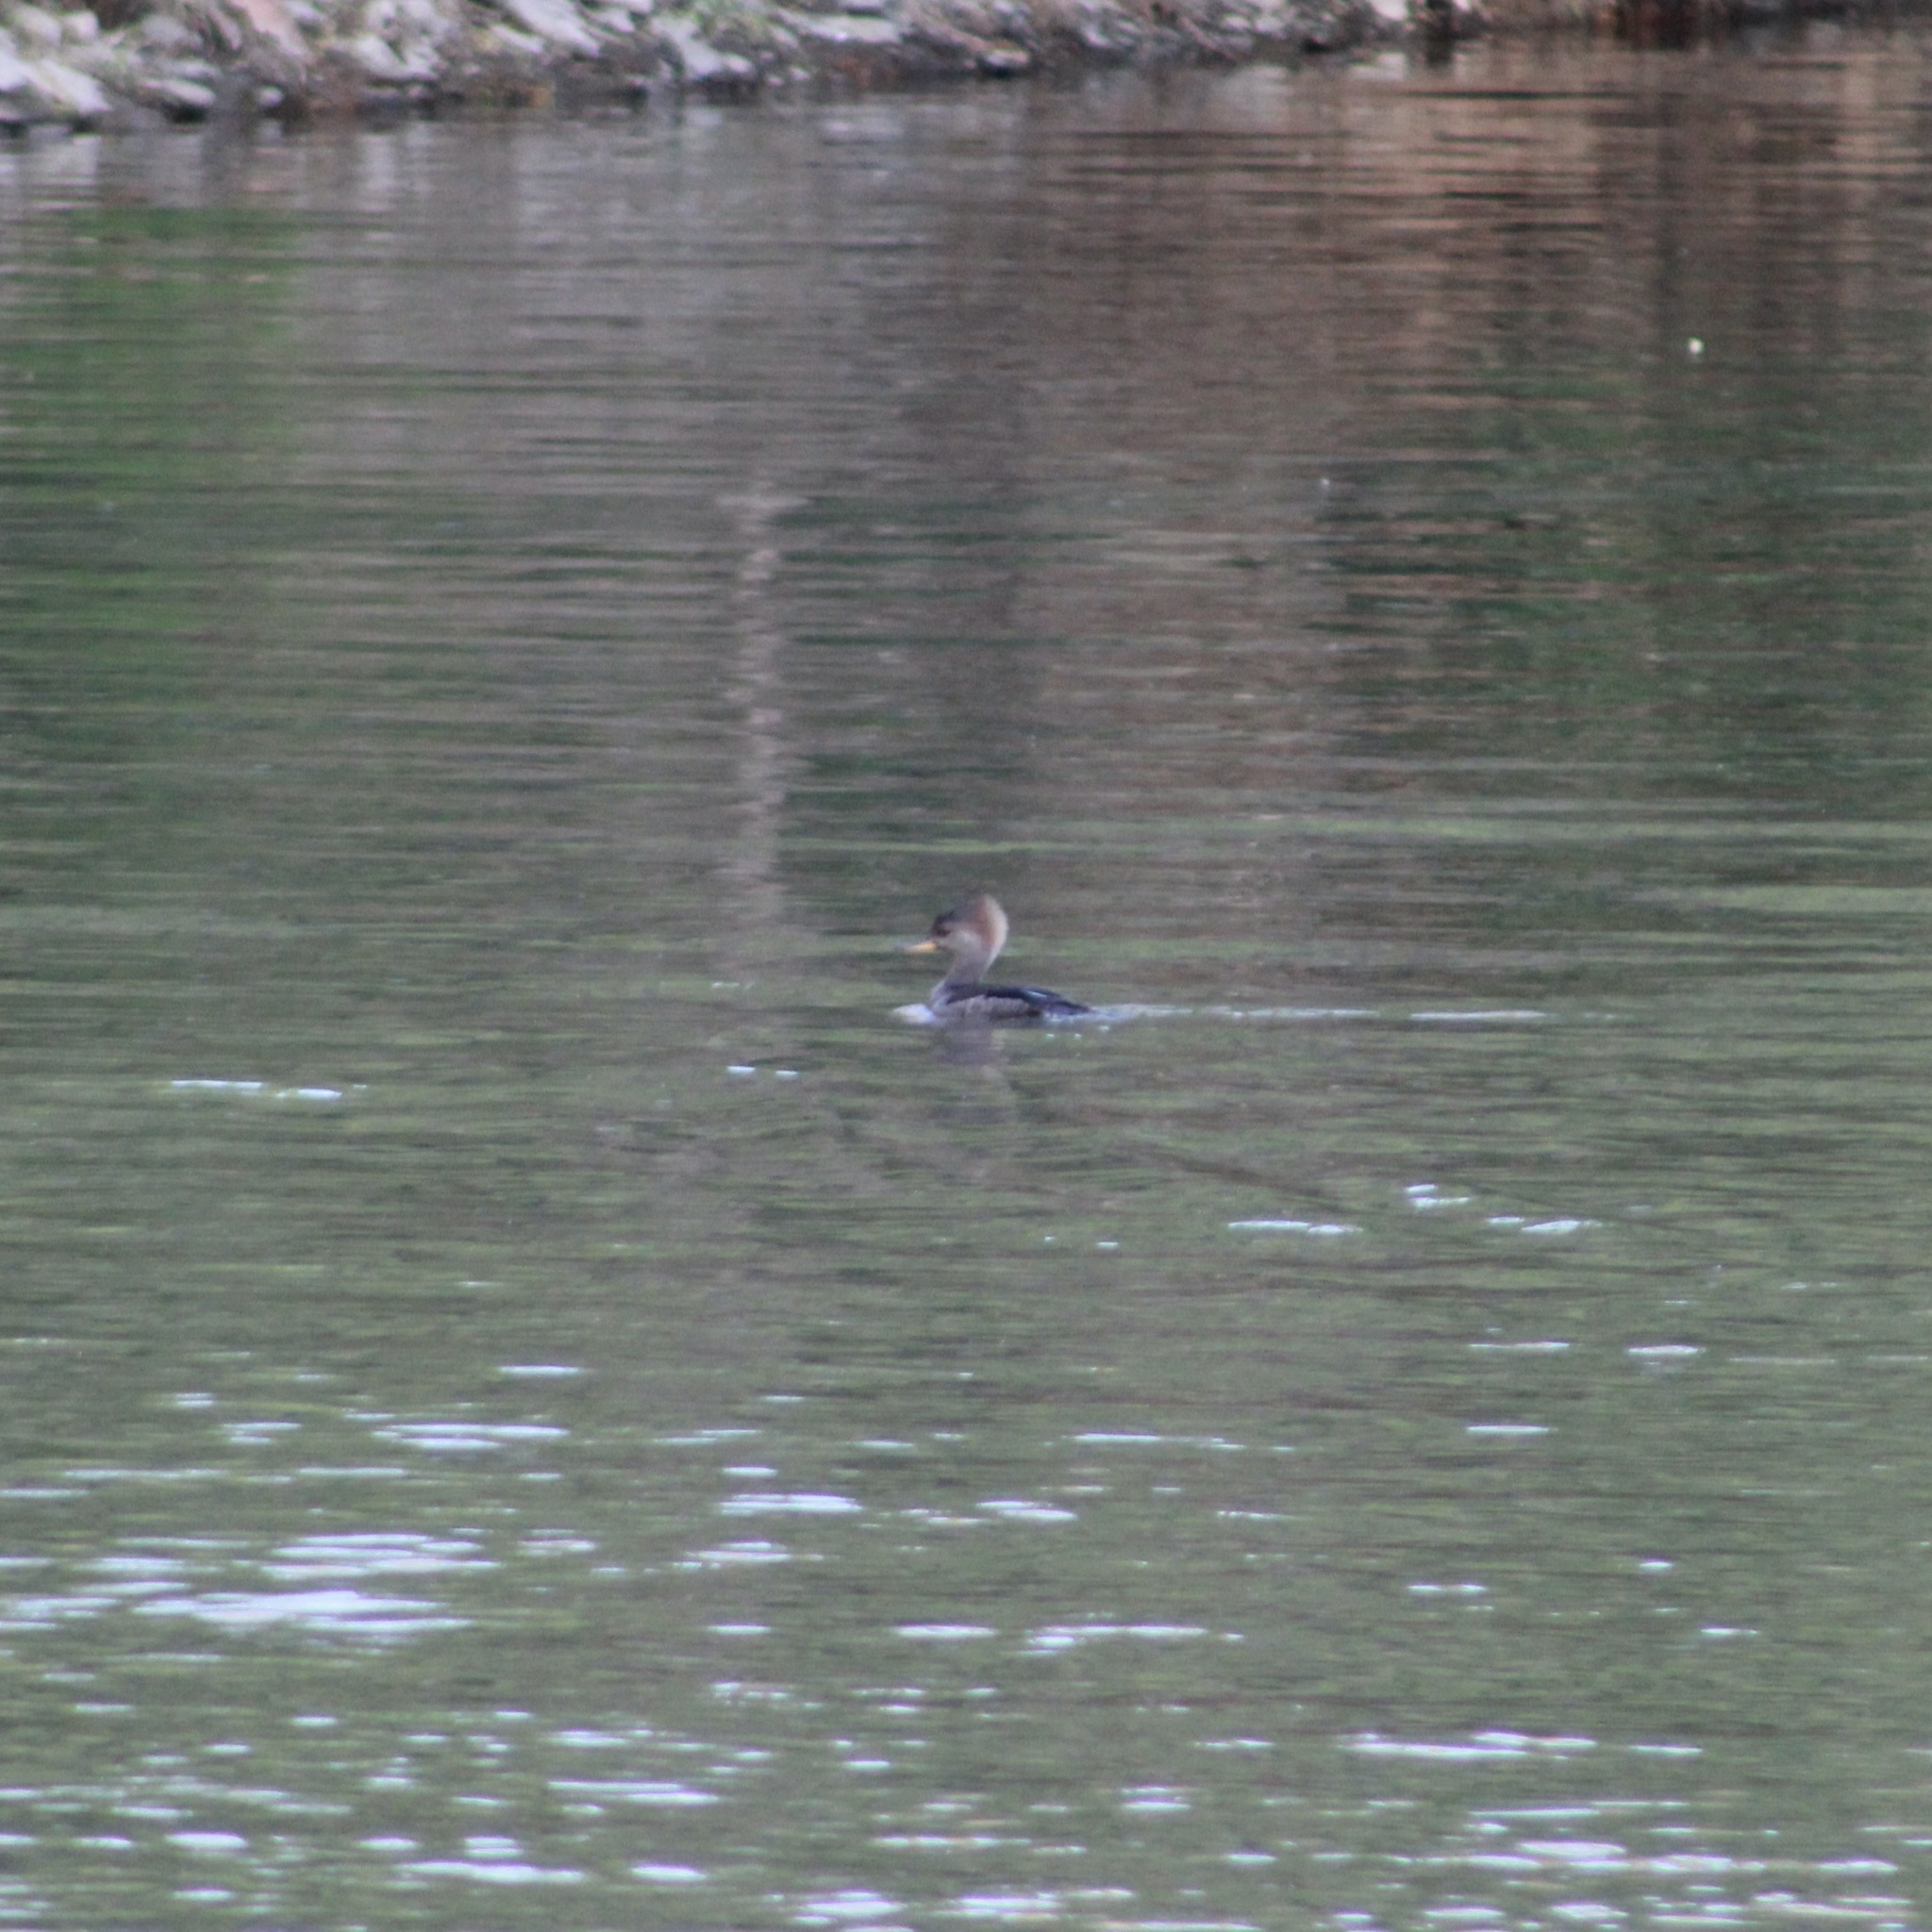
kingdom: Animalia
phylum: Chordata
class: Aves
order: Anseriformes
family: Anatidae
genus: Lophodytes
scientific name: Lophodytes cucullatus
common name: Hooded merganser
